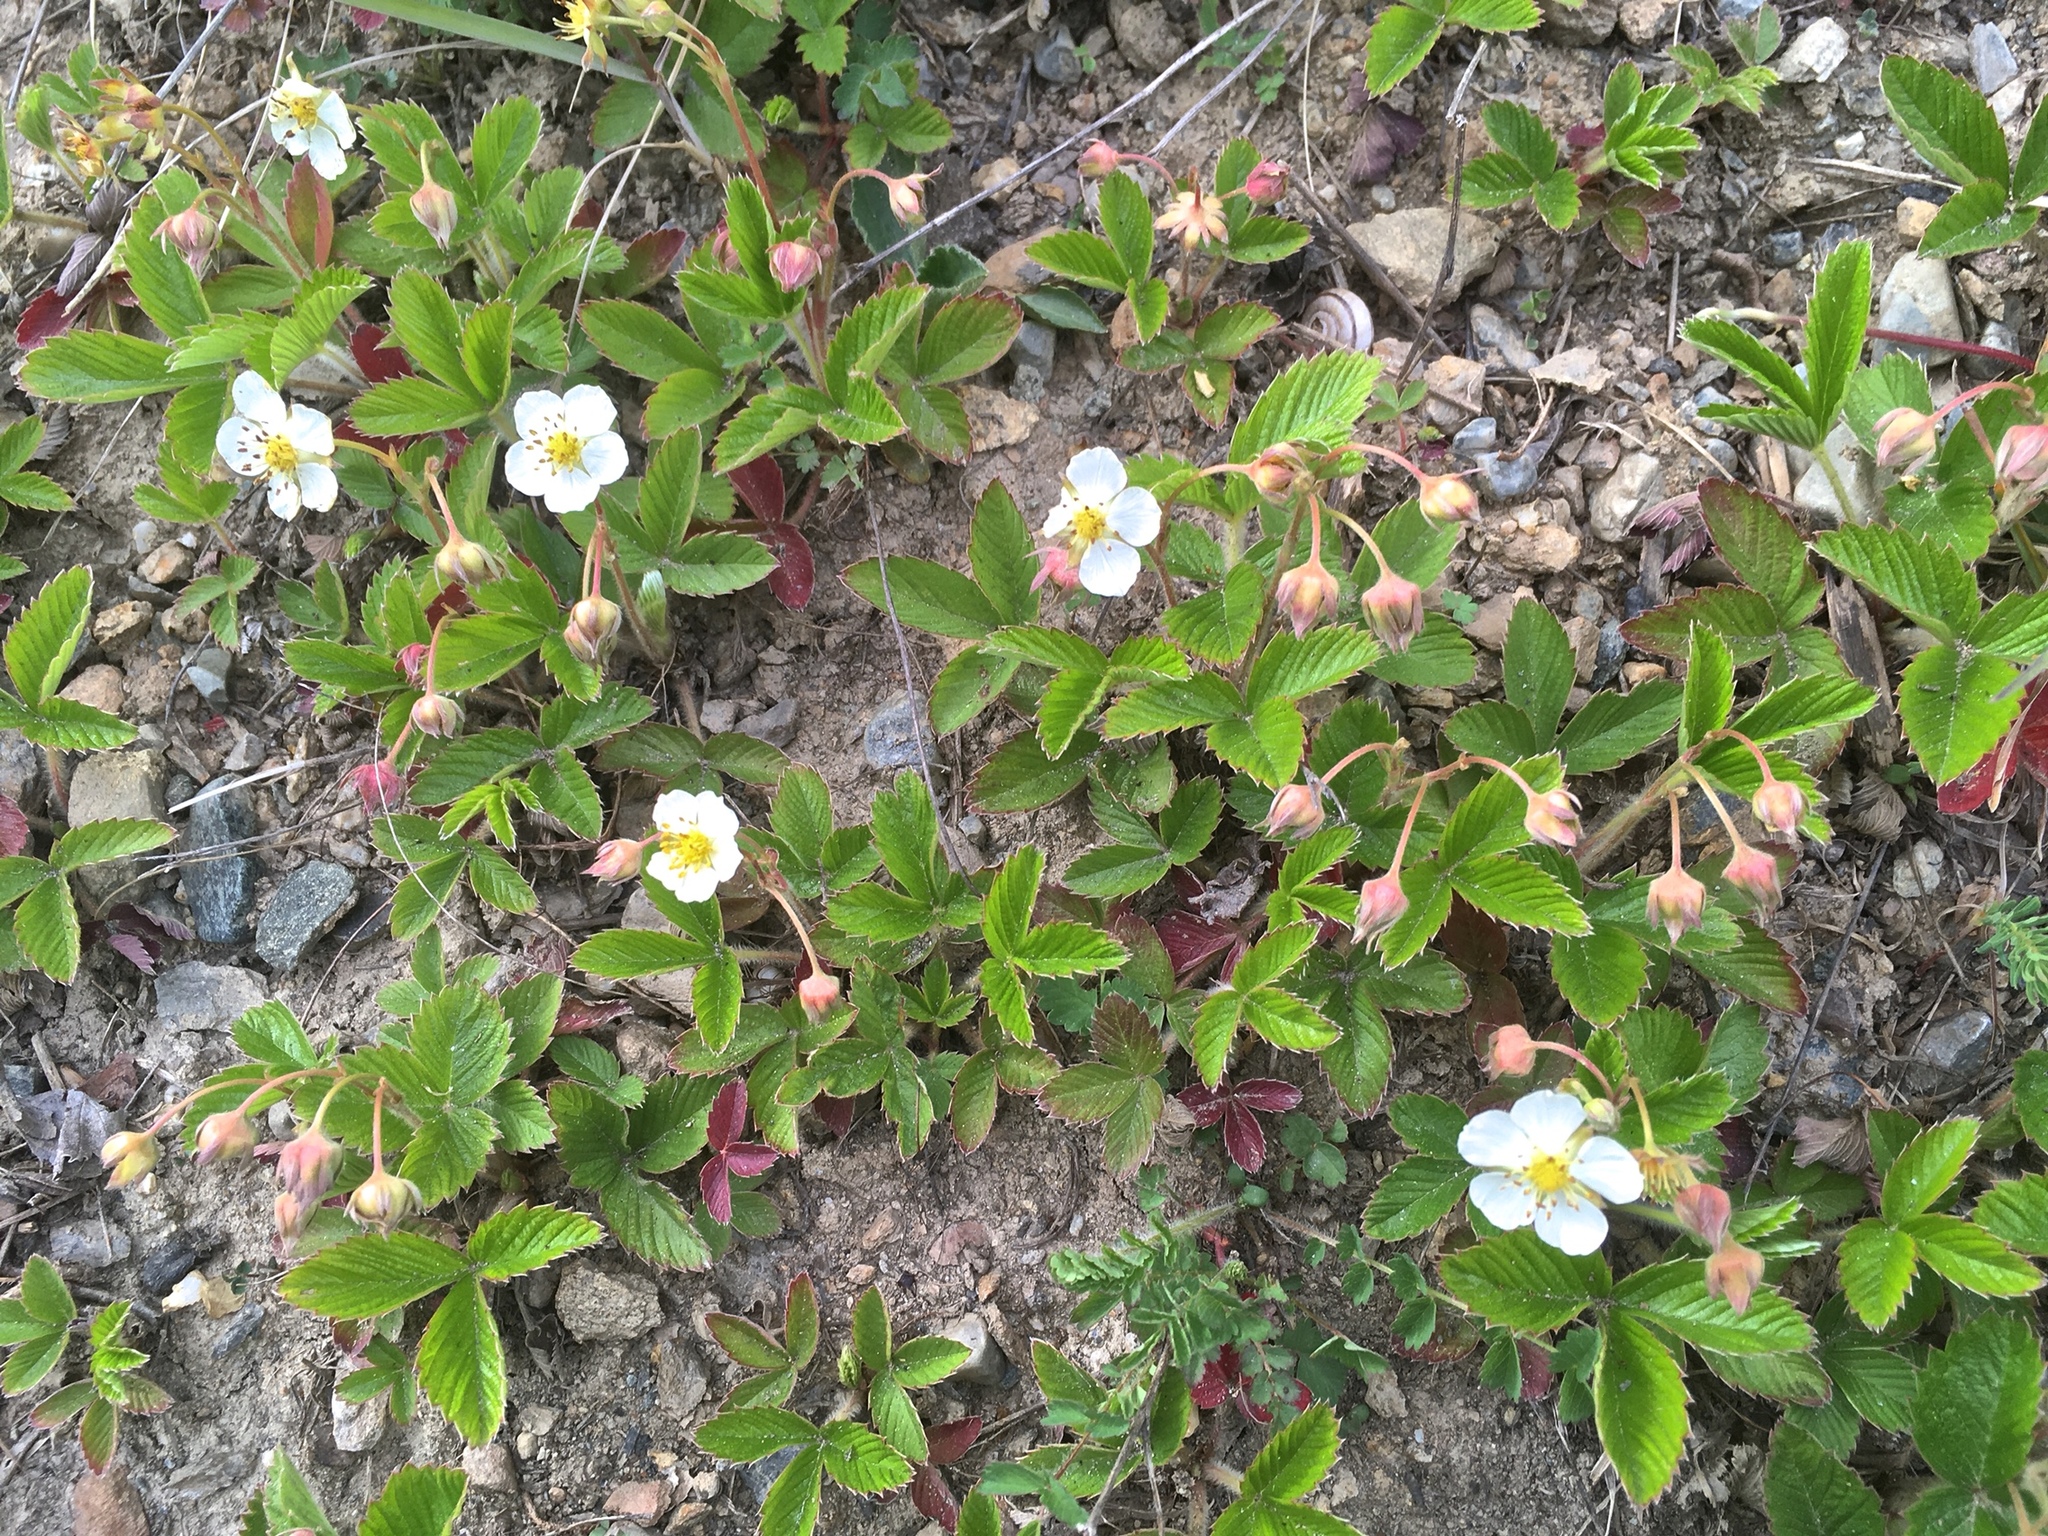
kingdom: Plantae
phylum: Tracheophyta
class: Magnoliopsida
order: Rosales
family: Rosaceae
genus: Fragaria
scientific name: Fragaria viridis
